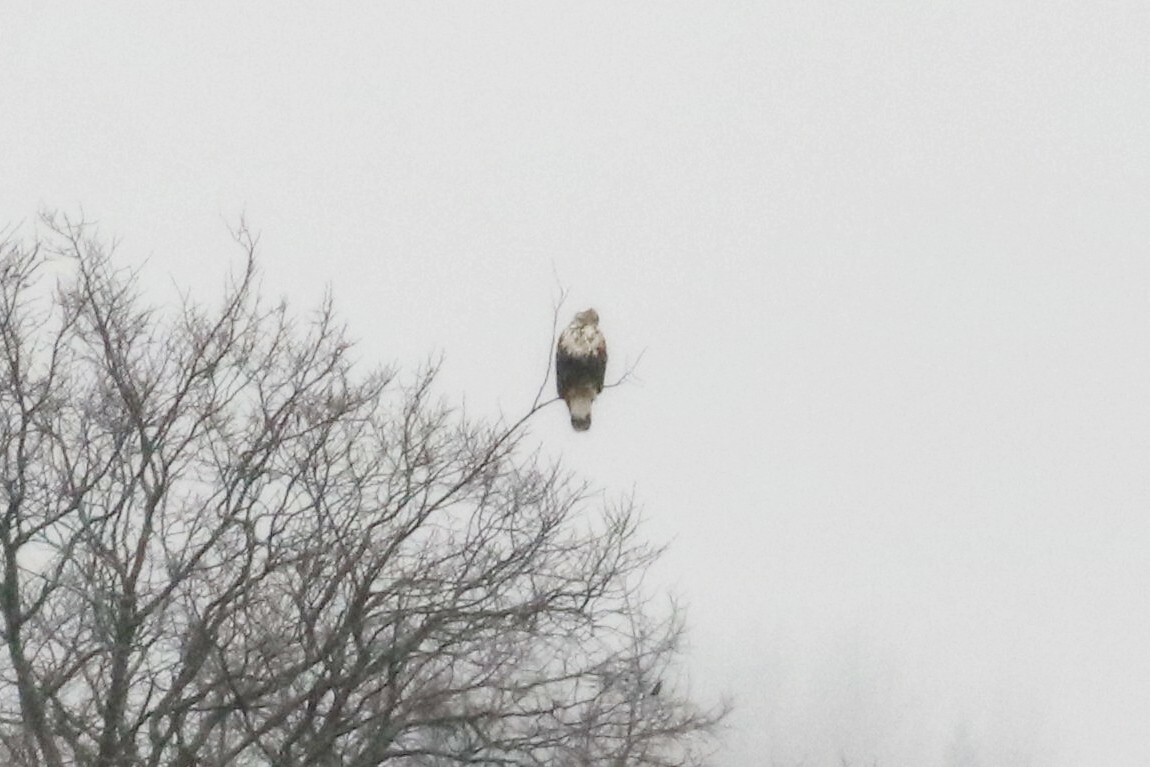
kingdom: Animalia
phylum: Chordata
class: Aves
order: Accipitriformes
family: Accipitridae
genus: Buteo
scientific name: Buteo lagopus
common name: Rough-legged buzzard
